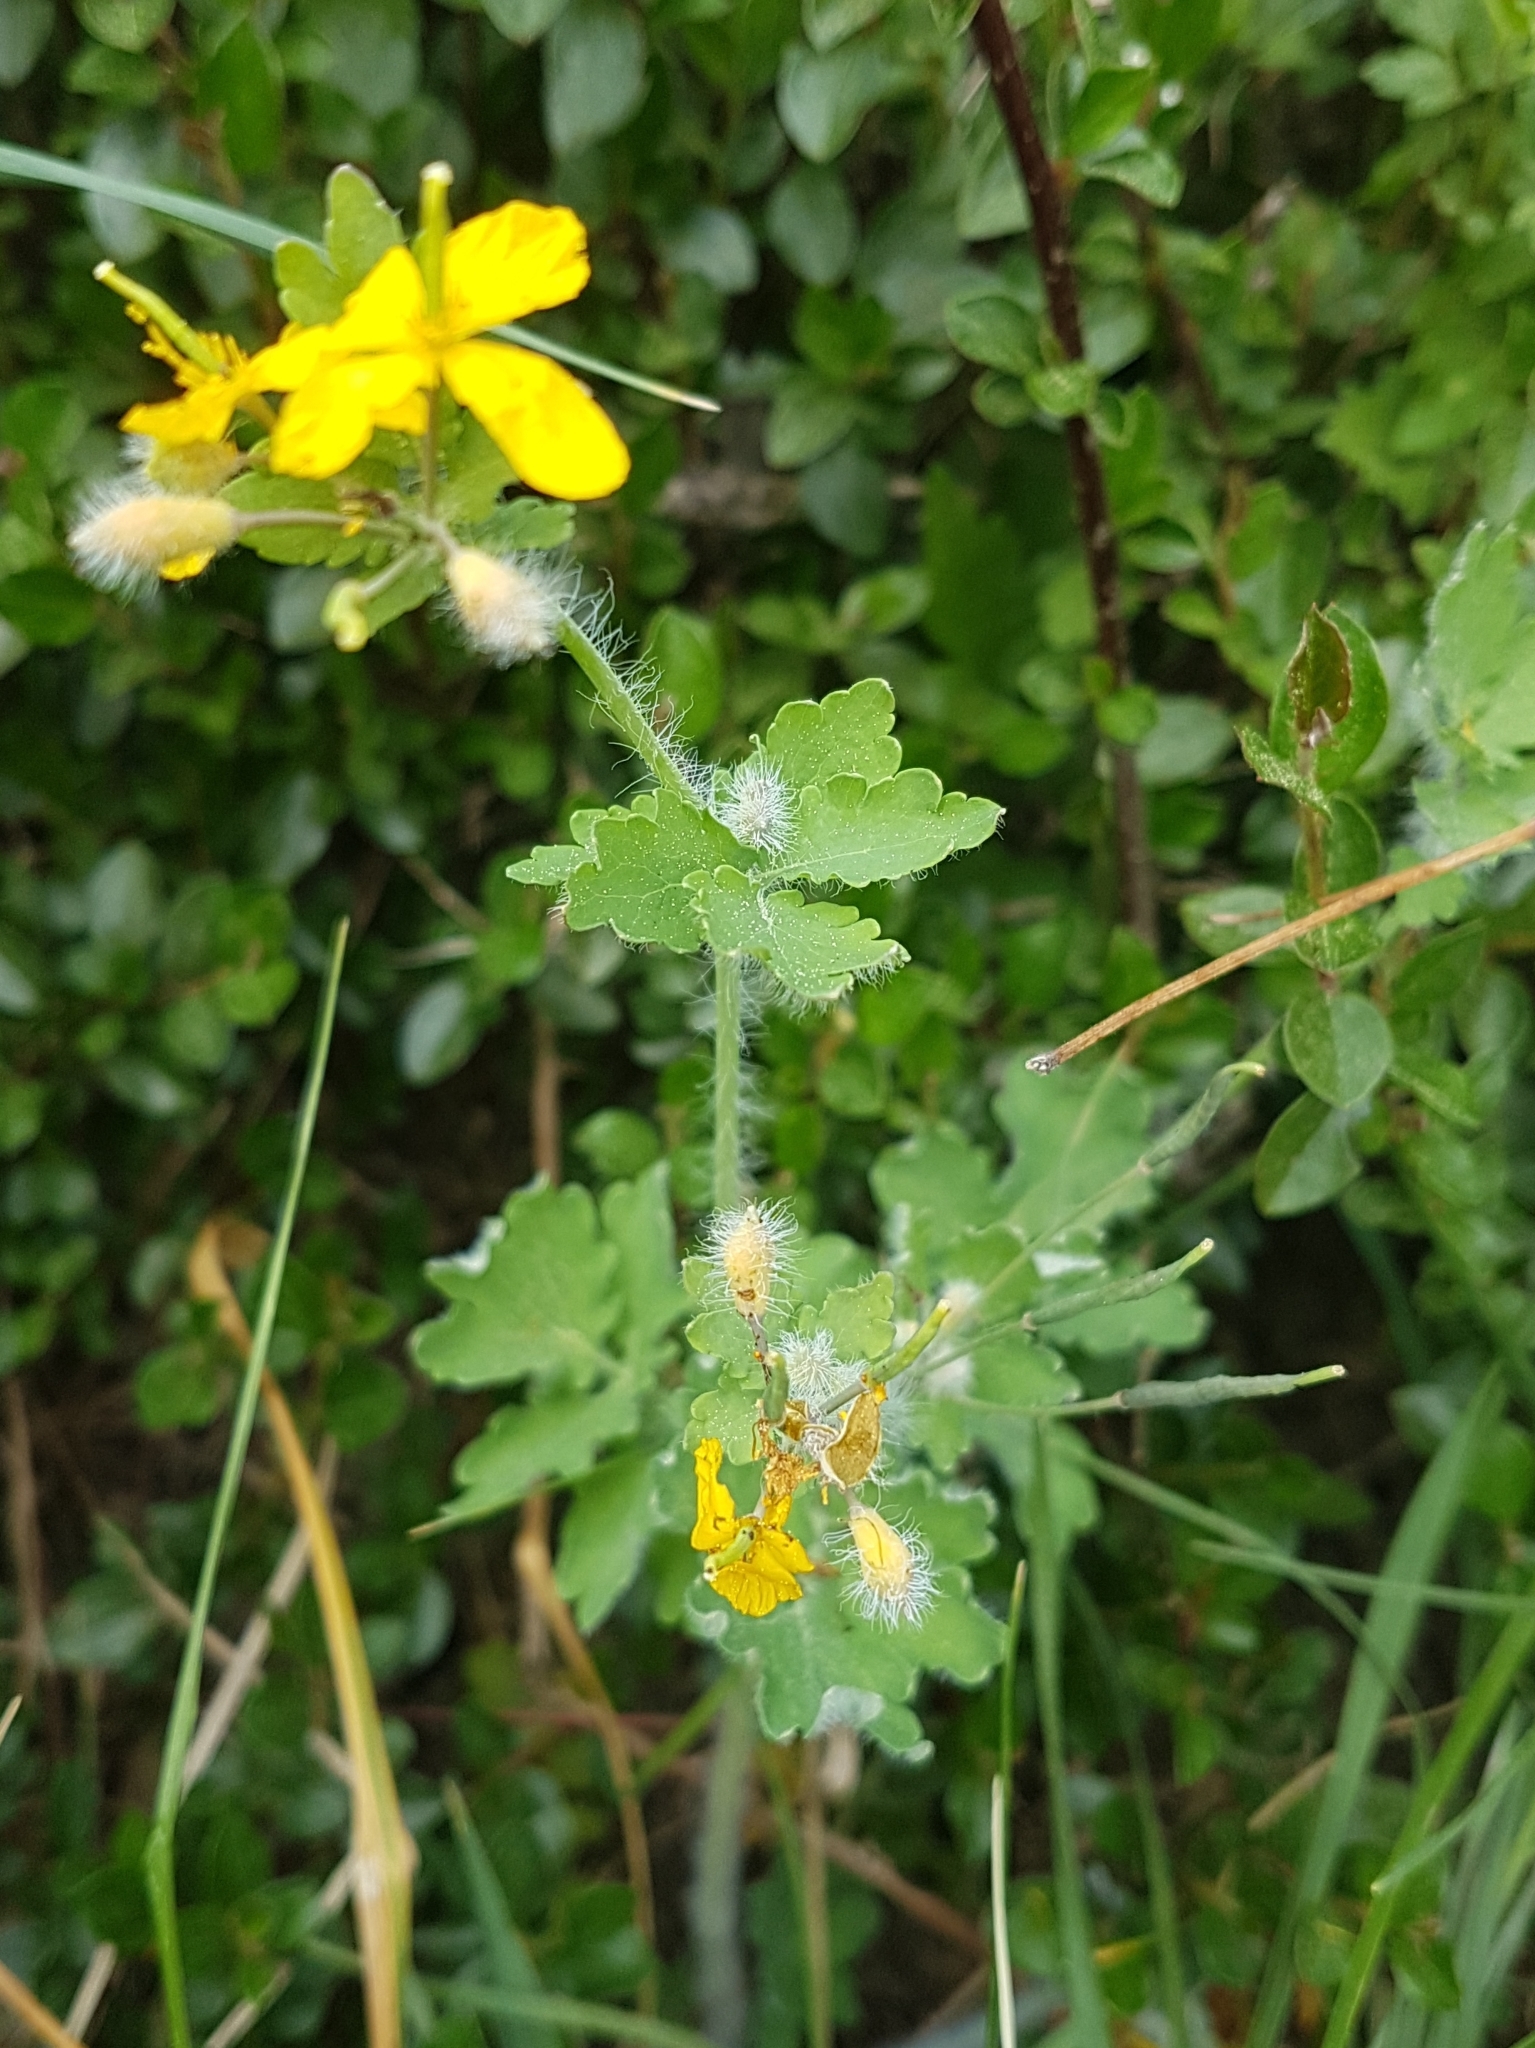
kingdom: Plantae
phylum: Tracheophyta
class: Magnoliopsida
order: Ranunculales
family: Papaveraceae
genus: Chelidonium
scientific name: Chelidonium majus
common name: Greater celandine
